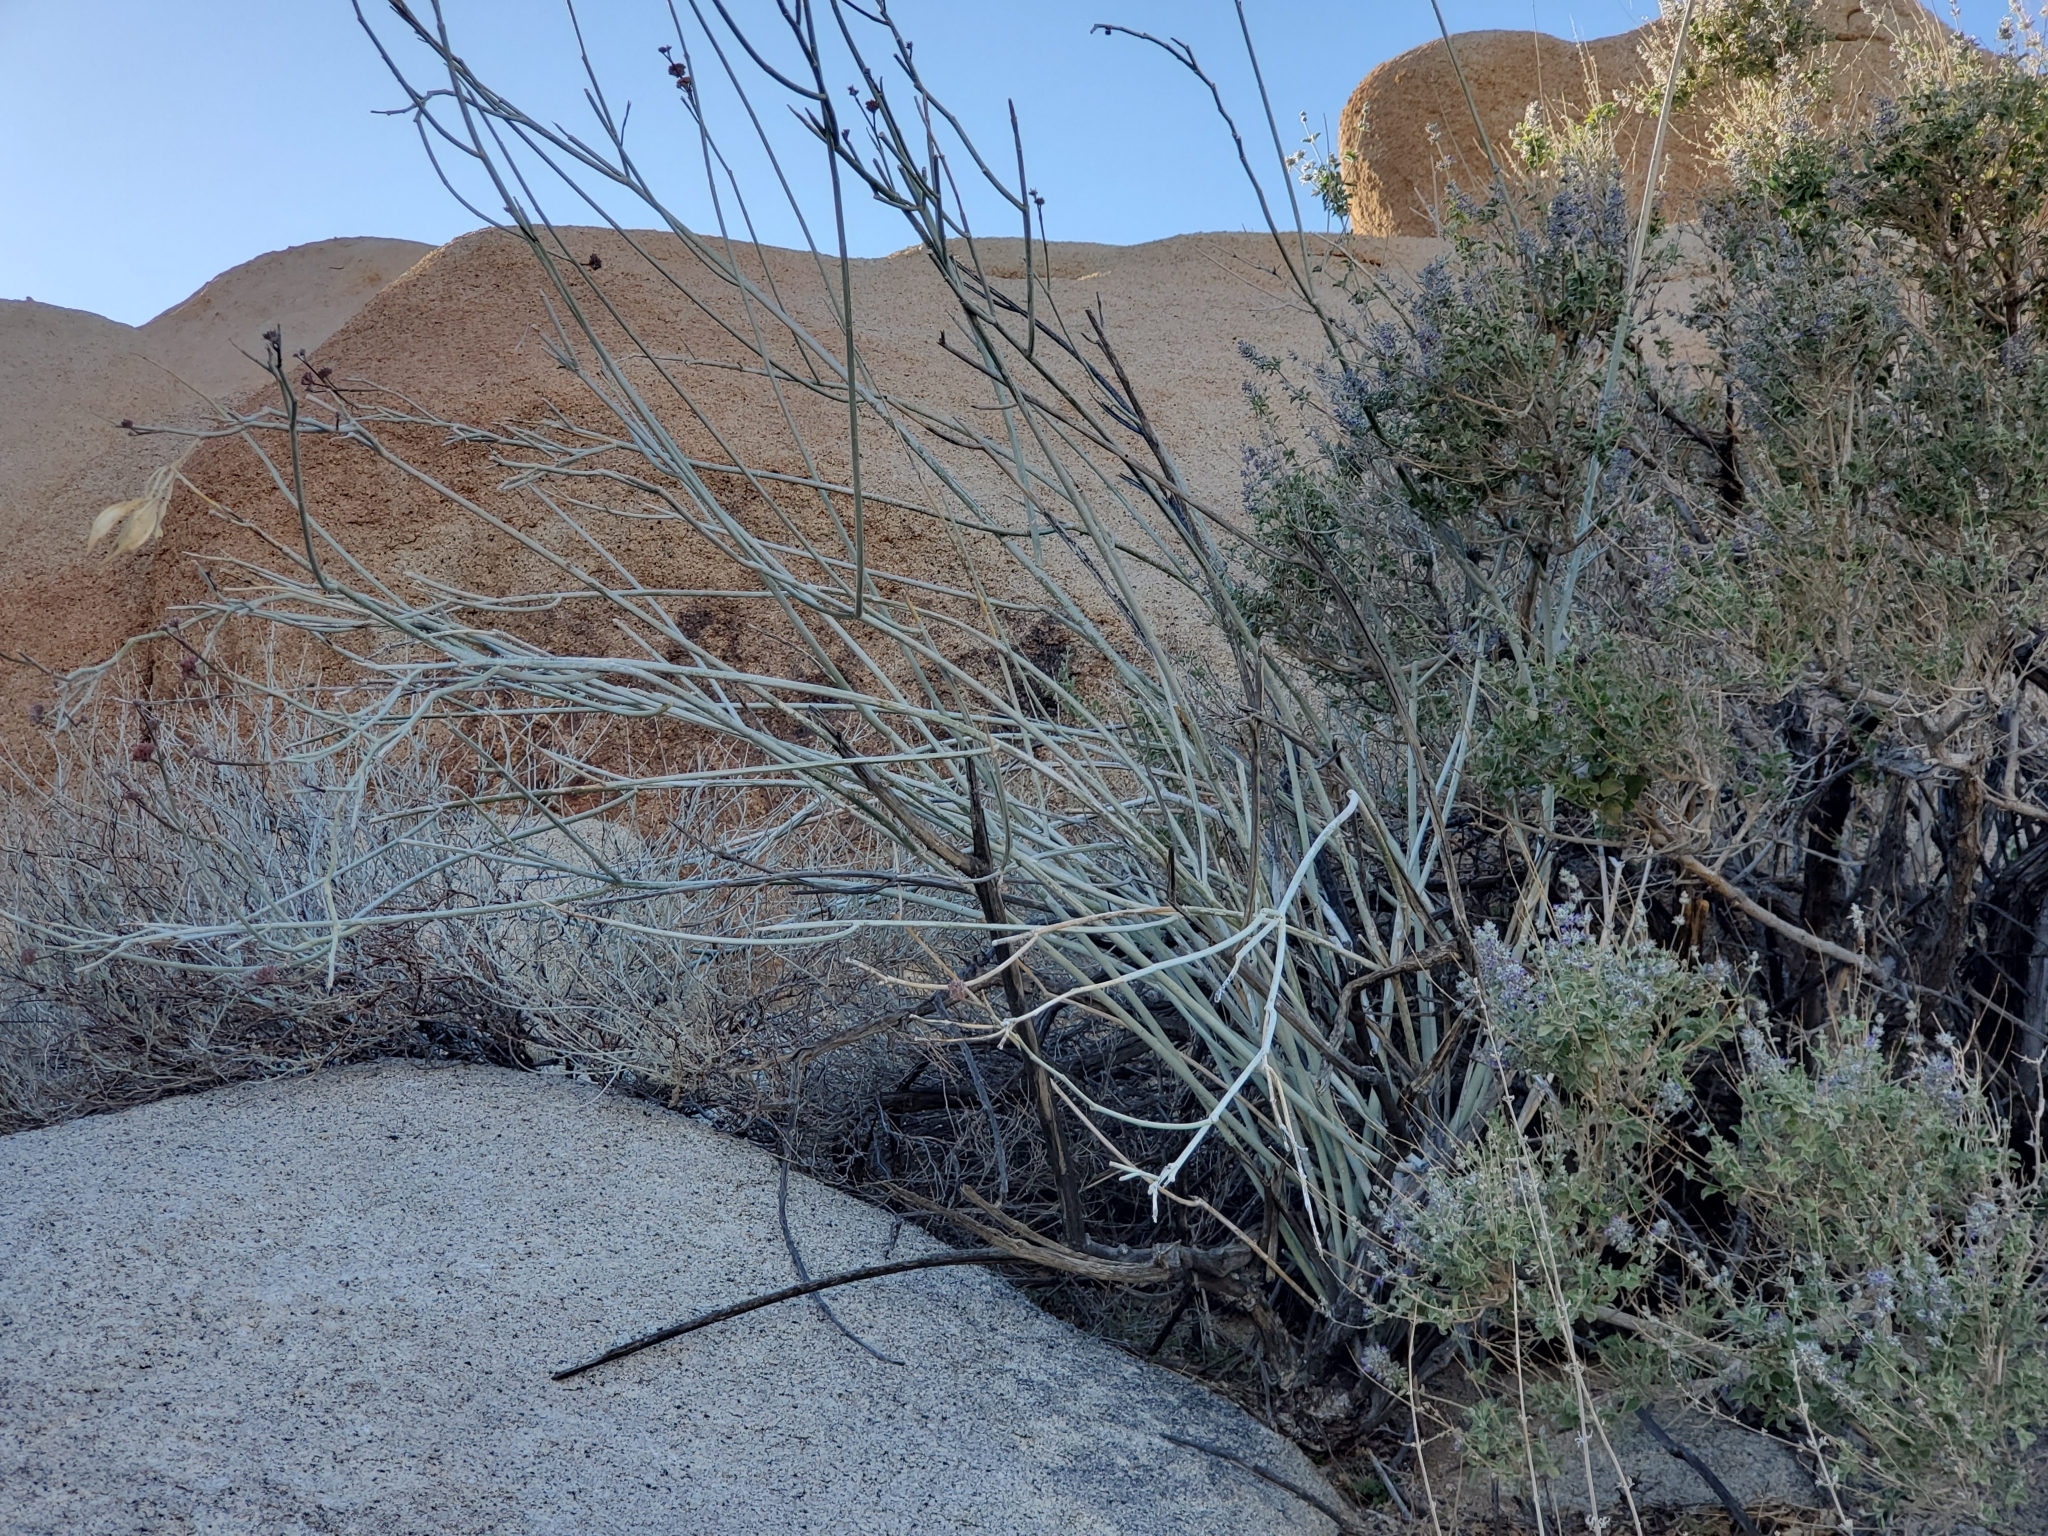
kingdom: Plantae
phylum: Tracheophyta
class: Magnoliopsida
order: Gentianales
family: Apocynaceae
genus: Asclepias
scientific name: Asclepias albicans
